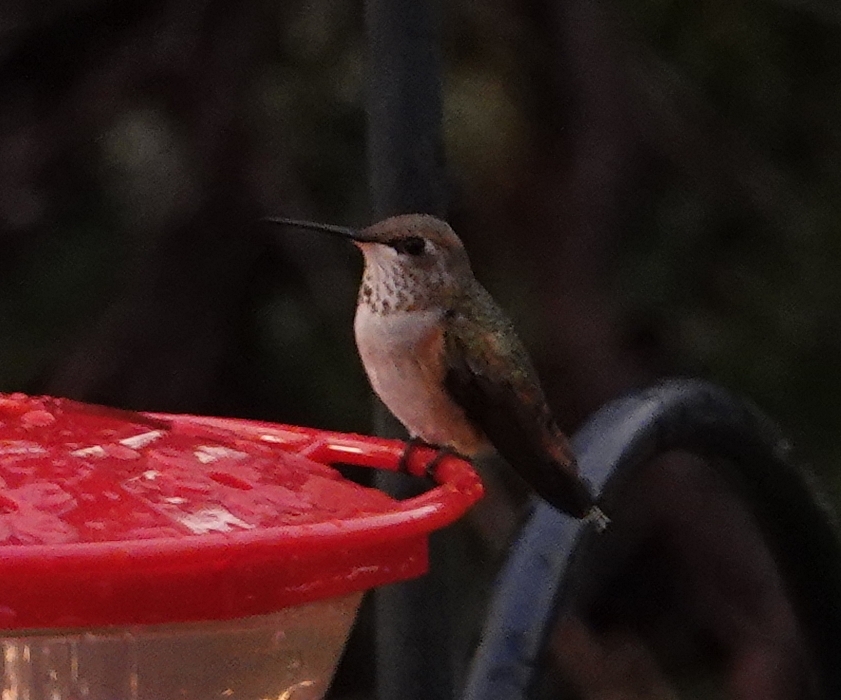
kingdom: Animalia
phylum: Chordata
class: Aves
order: Apodiformes
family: Trochilidae
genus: Selasphorus
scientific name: Selasphorus rufus
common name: Rufous hummingbird
